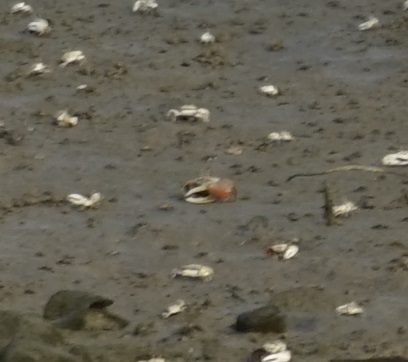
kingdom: Animalia
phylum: Arthropoda
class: Malacostraca
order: Decapoda
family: Ocypodidae
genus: Tubuca
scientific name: Tubuca arcuata
